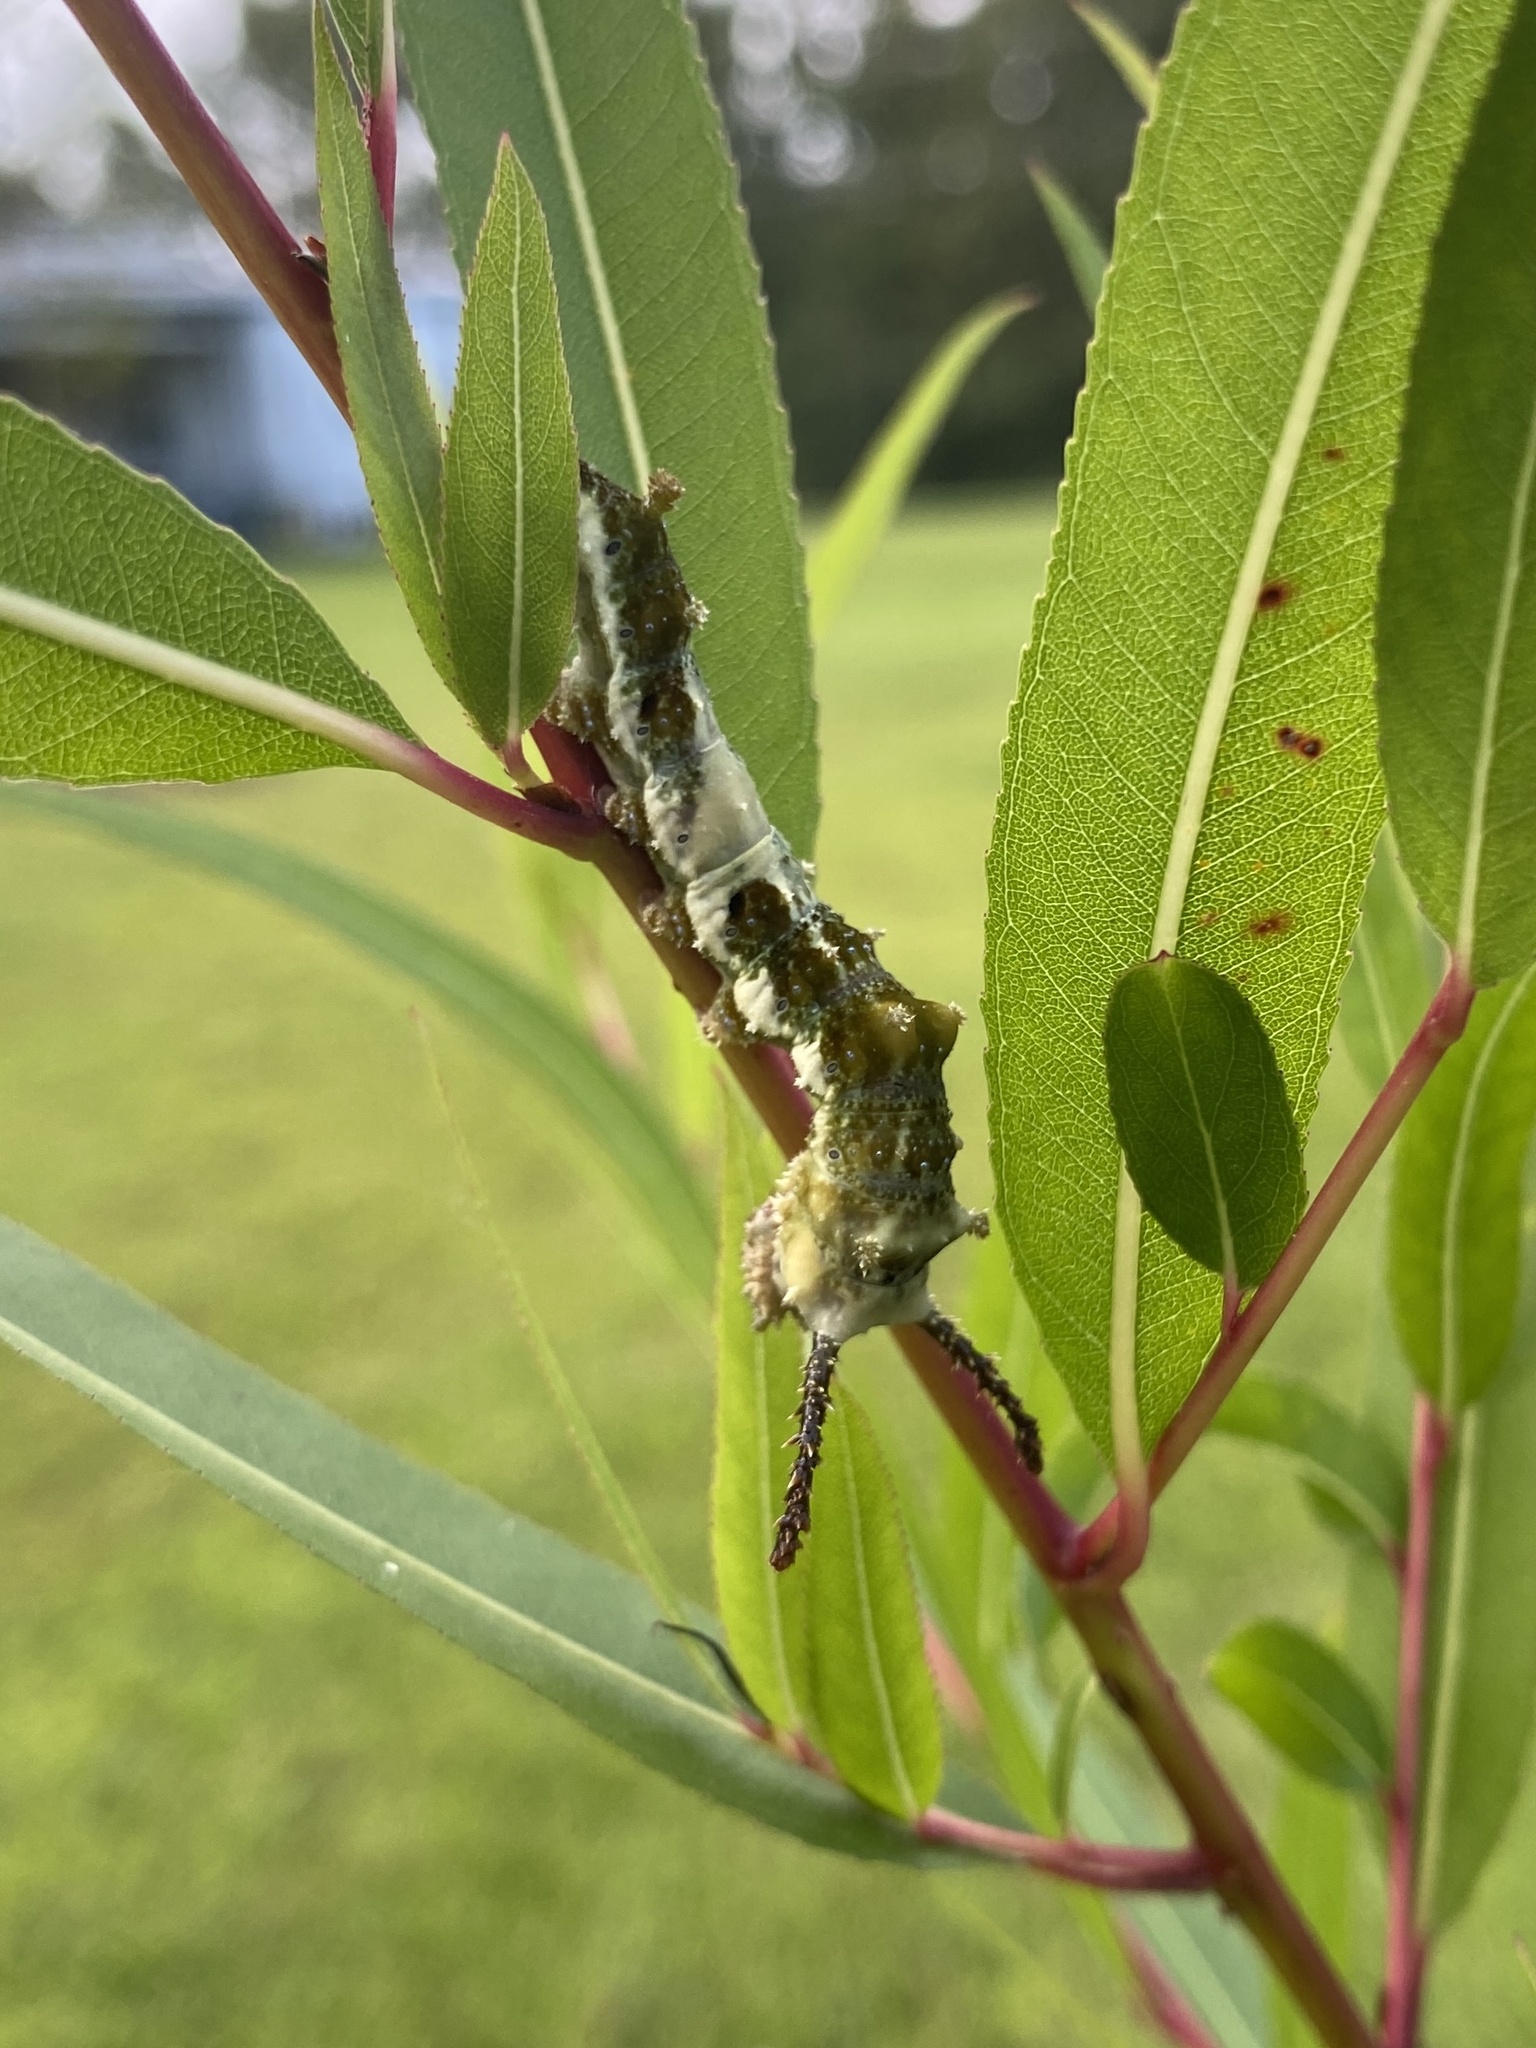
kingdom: Animalia
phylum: Arthropoda
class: Insecta
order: Lepidoptera
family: Nymphalidae
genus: Limenitis
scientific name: Limenitis archippus
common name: Viceroy
